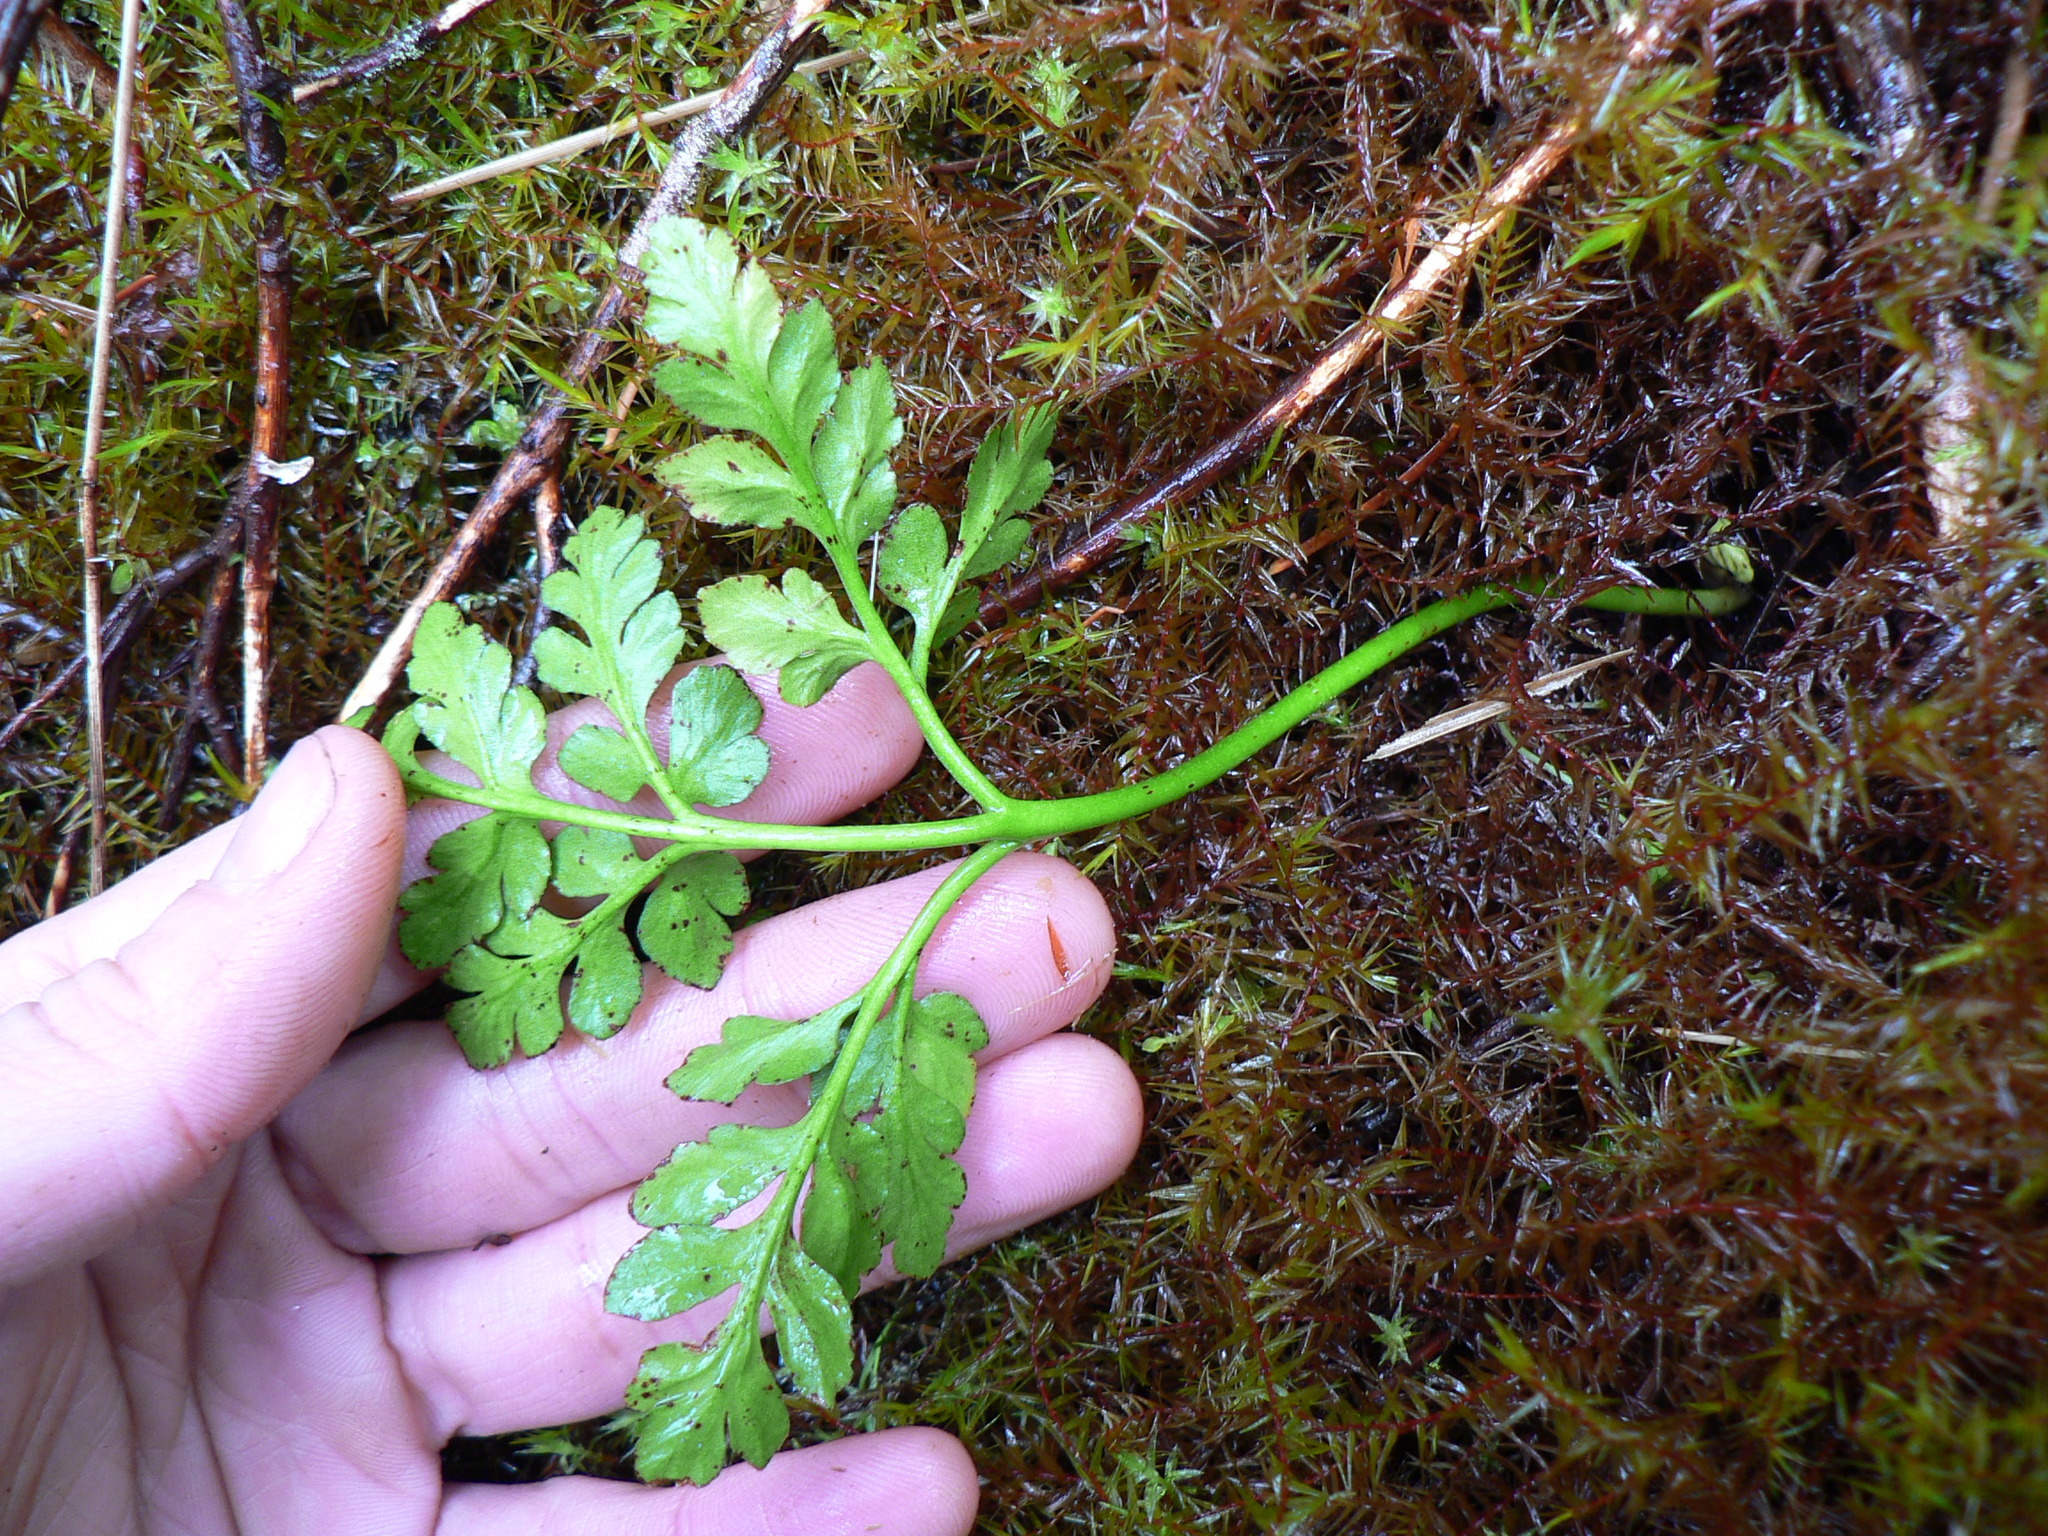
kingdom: Plantae
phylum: Tracheophyta
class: Polypodiopsida
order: Ophioglossales
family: Ophioglossaceae
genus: Sceptridium
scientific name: Sceptridium multifidum
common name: Leathery grape fern
